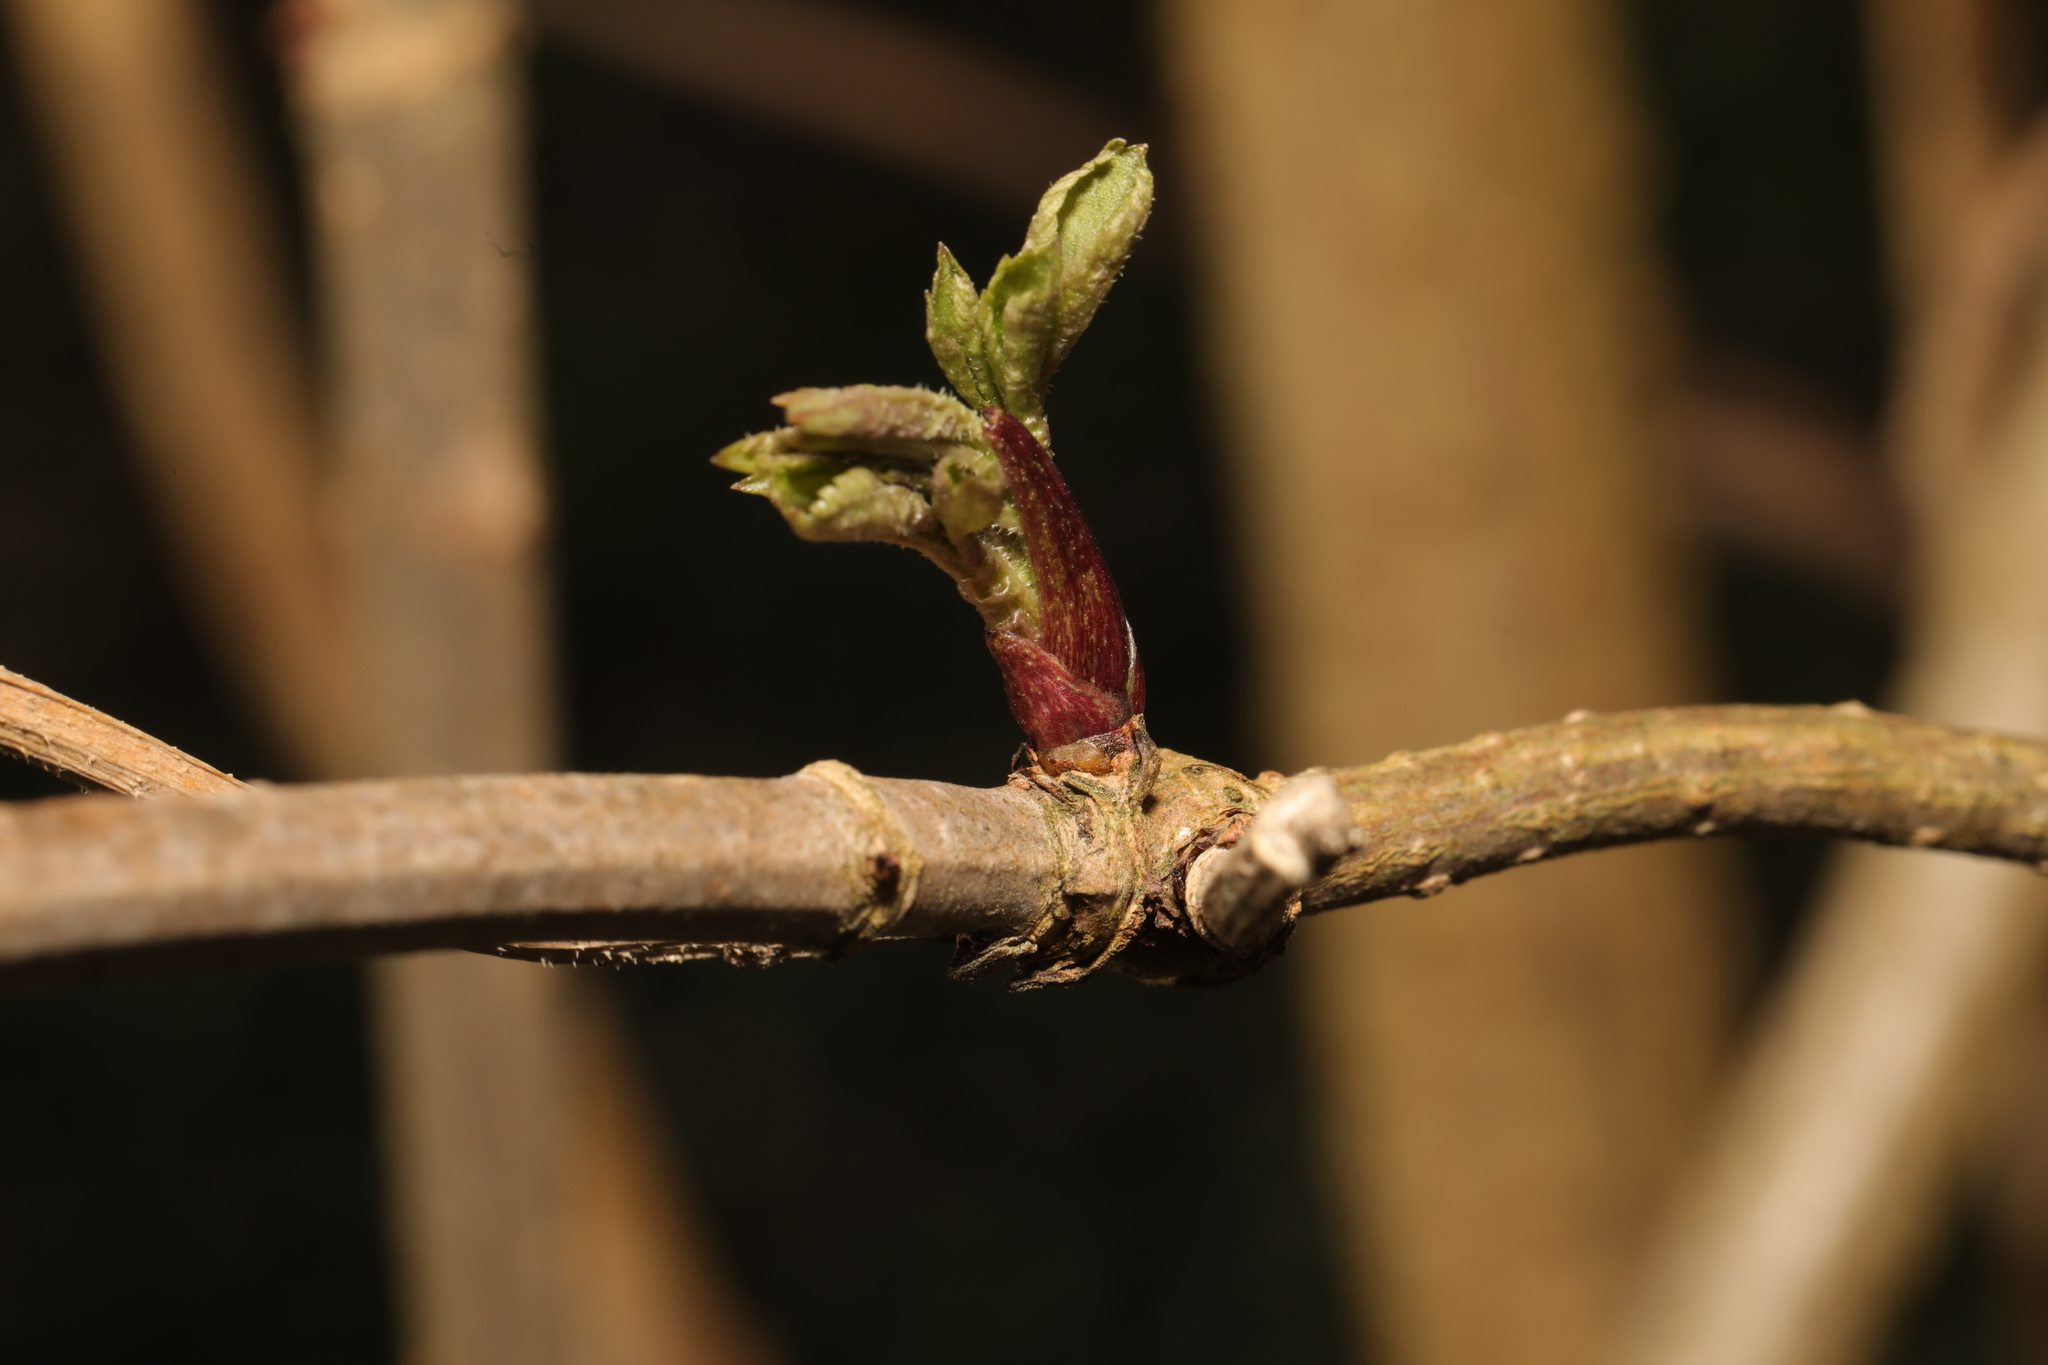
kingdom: Plantae
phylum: Tracheophyta
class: Magnoliopsida
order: Dipsacales
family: Viburnaceae
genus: Sambucus
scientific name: Sambucus nigra
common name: Elder
